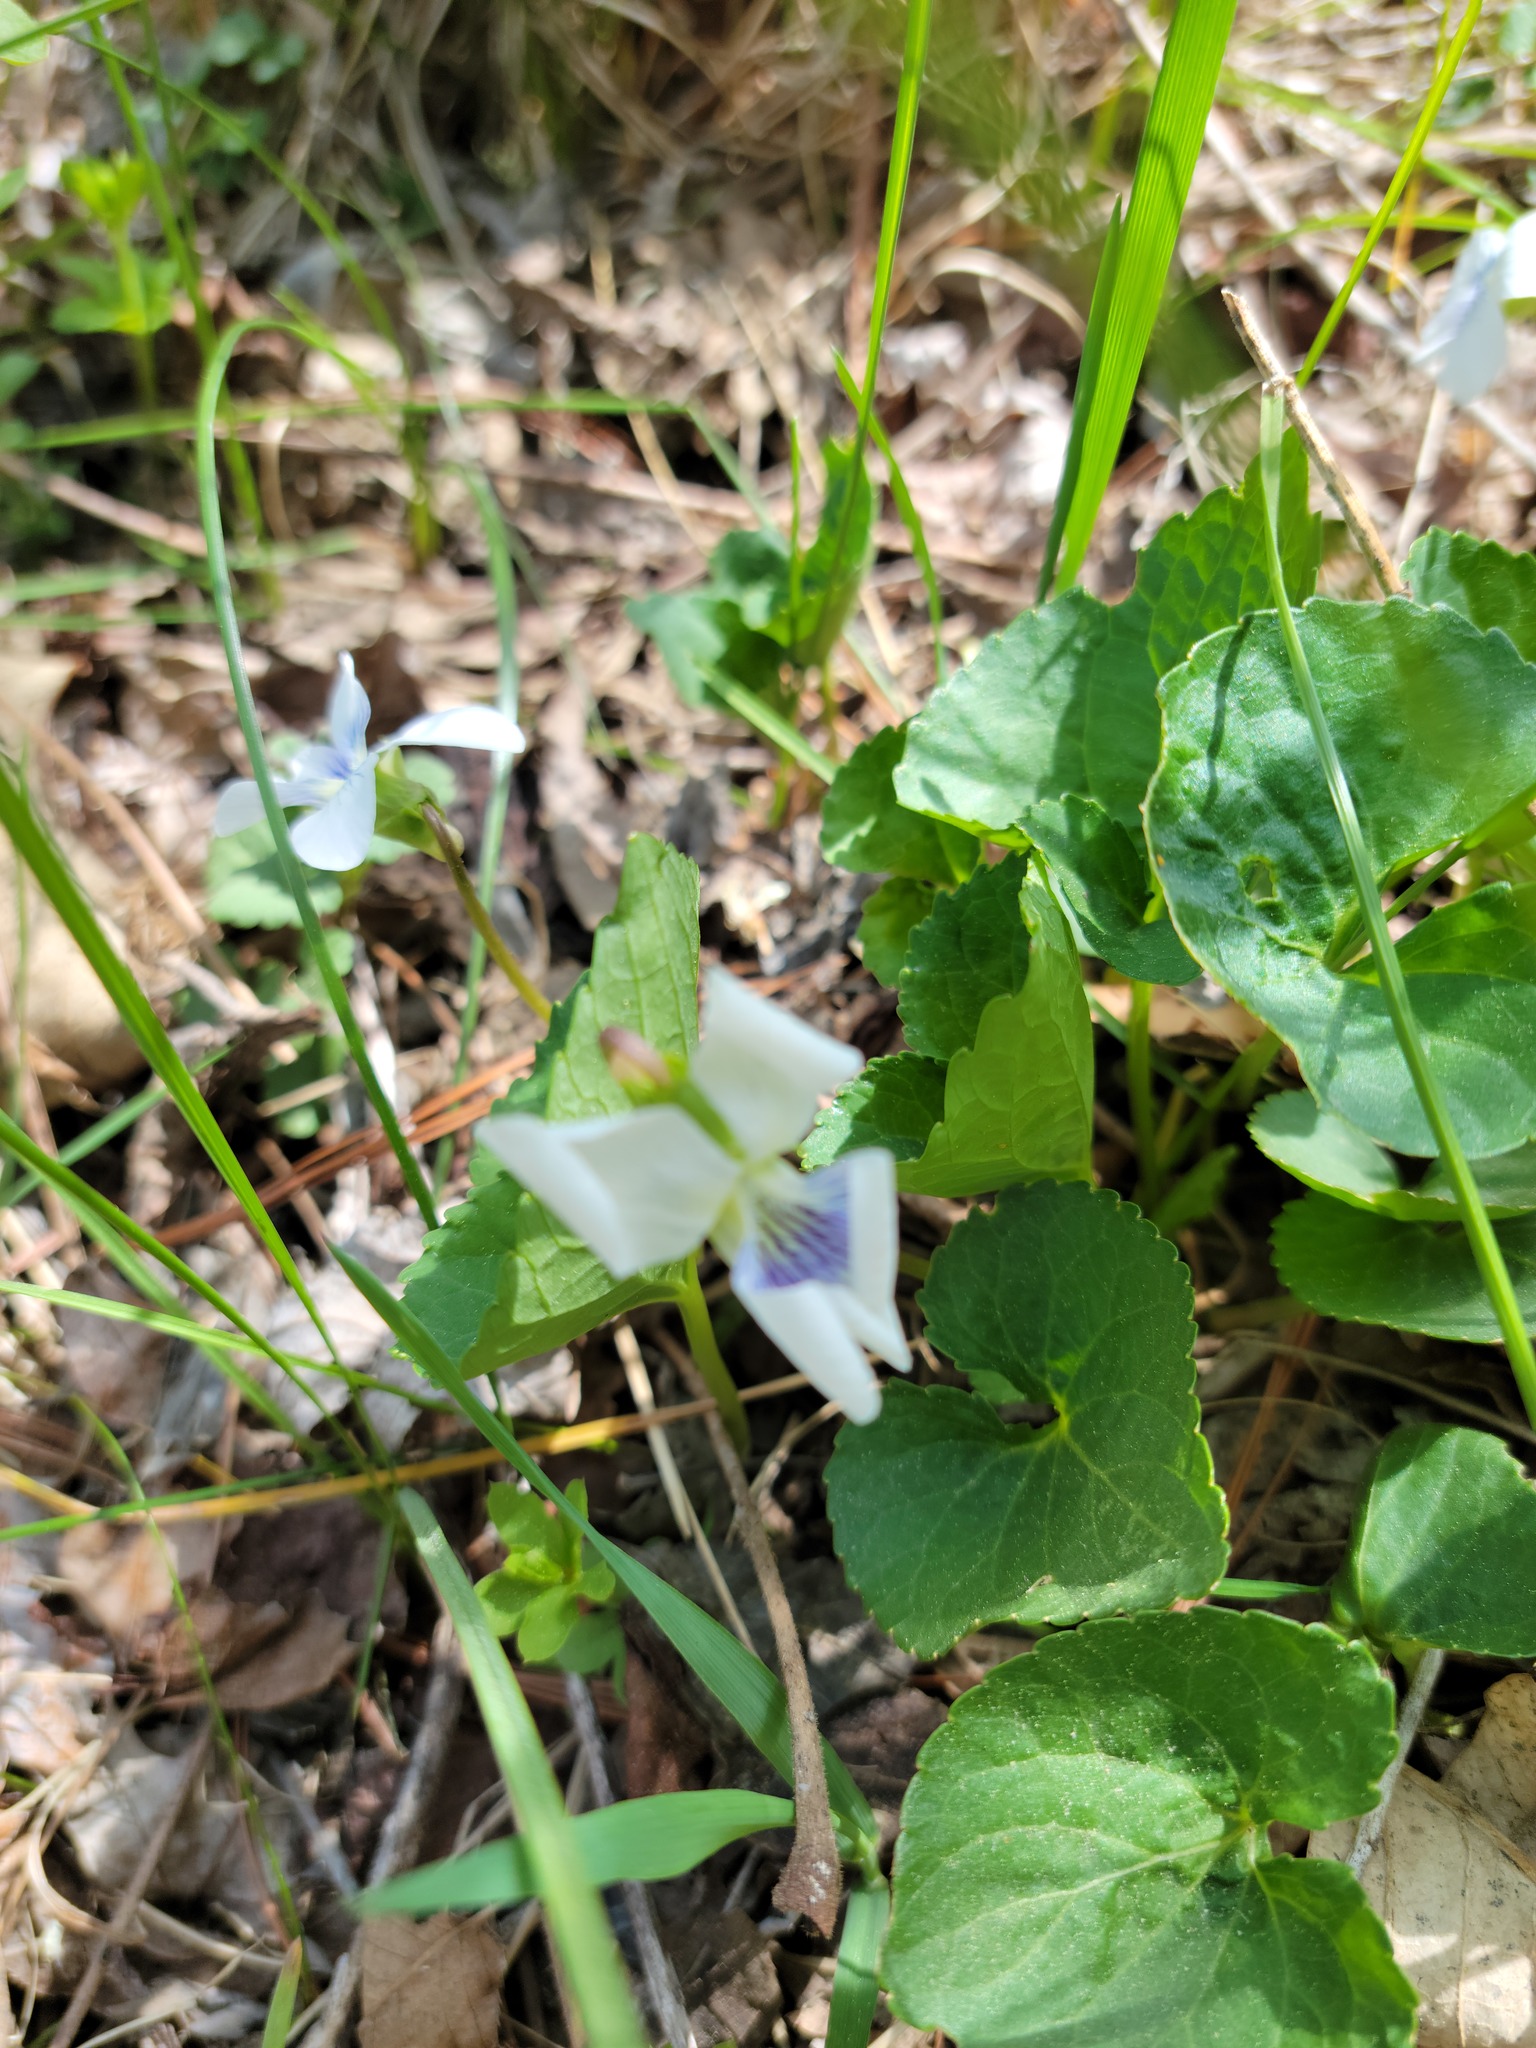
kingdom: Plantae
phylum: Tracheophyta
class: Magnoliopsida
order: Malpighiales
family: Violaceae
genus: Viola
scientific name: Viola sororia
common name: Dooryard violet
